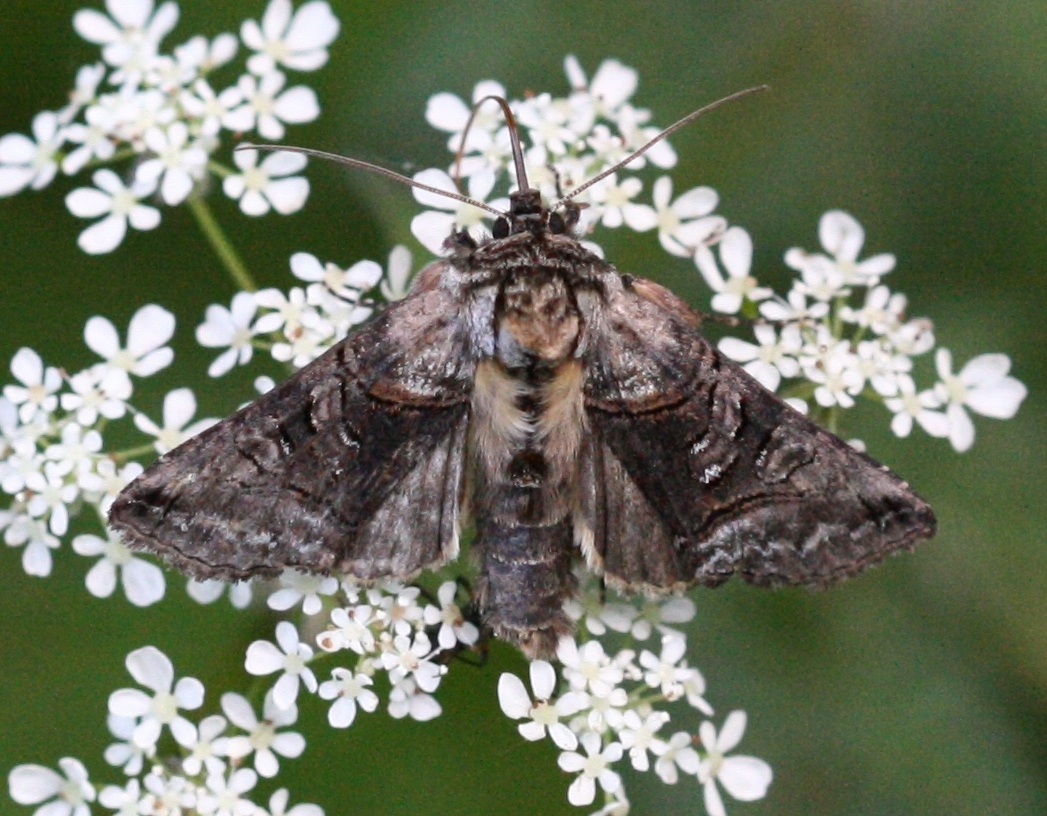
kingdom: Animalia
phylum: Arthropoda
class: Insecta
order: Lepidoptera
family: Noctuidae
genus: Abrostola
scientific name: Abrostola tripartita
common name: Spectacle
